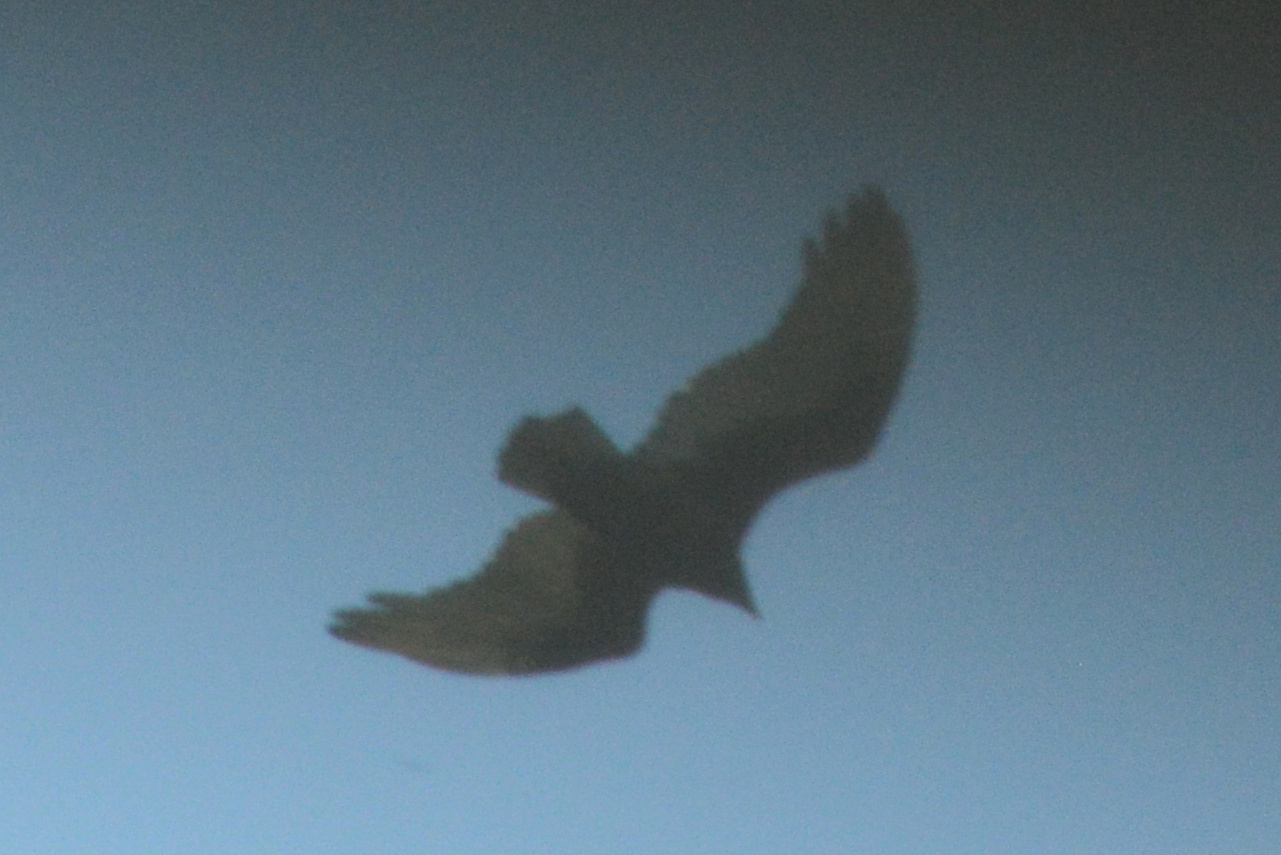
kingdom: Animalia
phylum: Chordata
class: Aves
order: Accipitriformes
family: Cathartidae
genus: Cathartes
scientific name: Cathartes aura
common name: Turkey vulture
